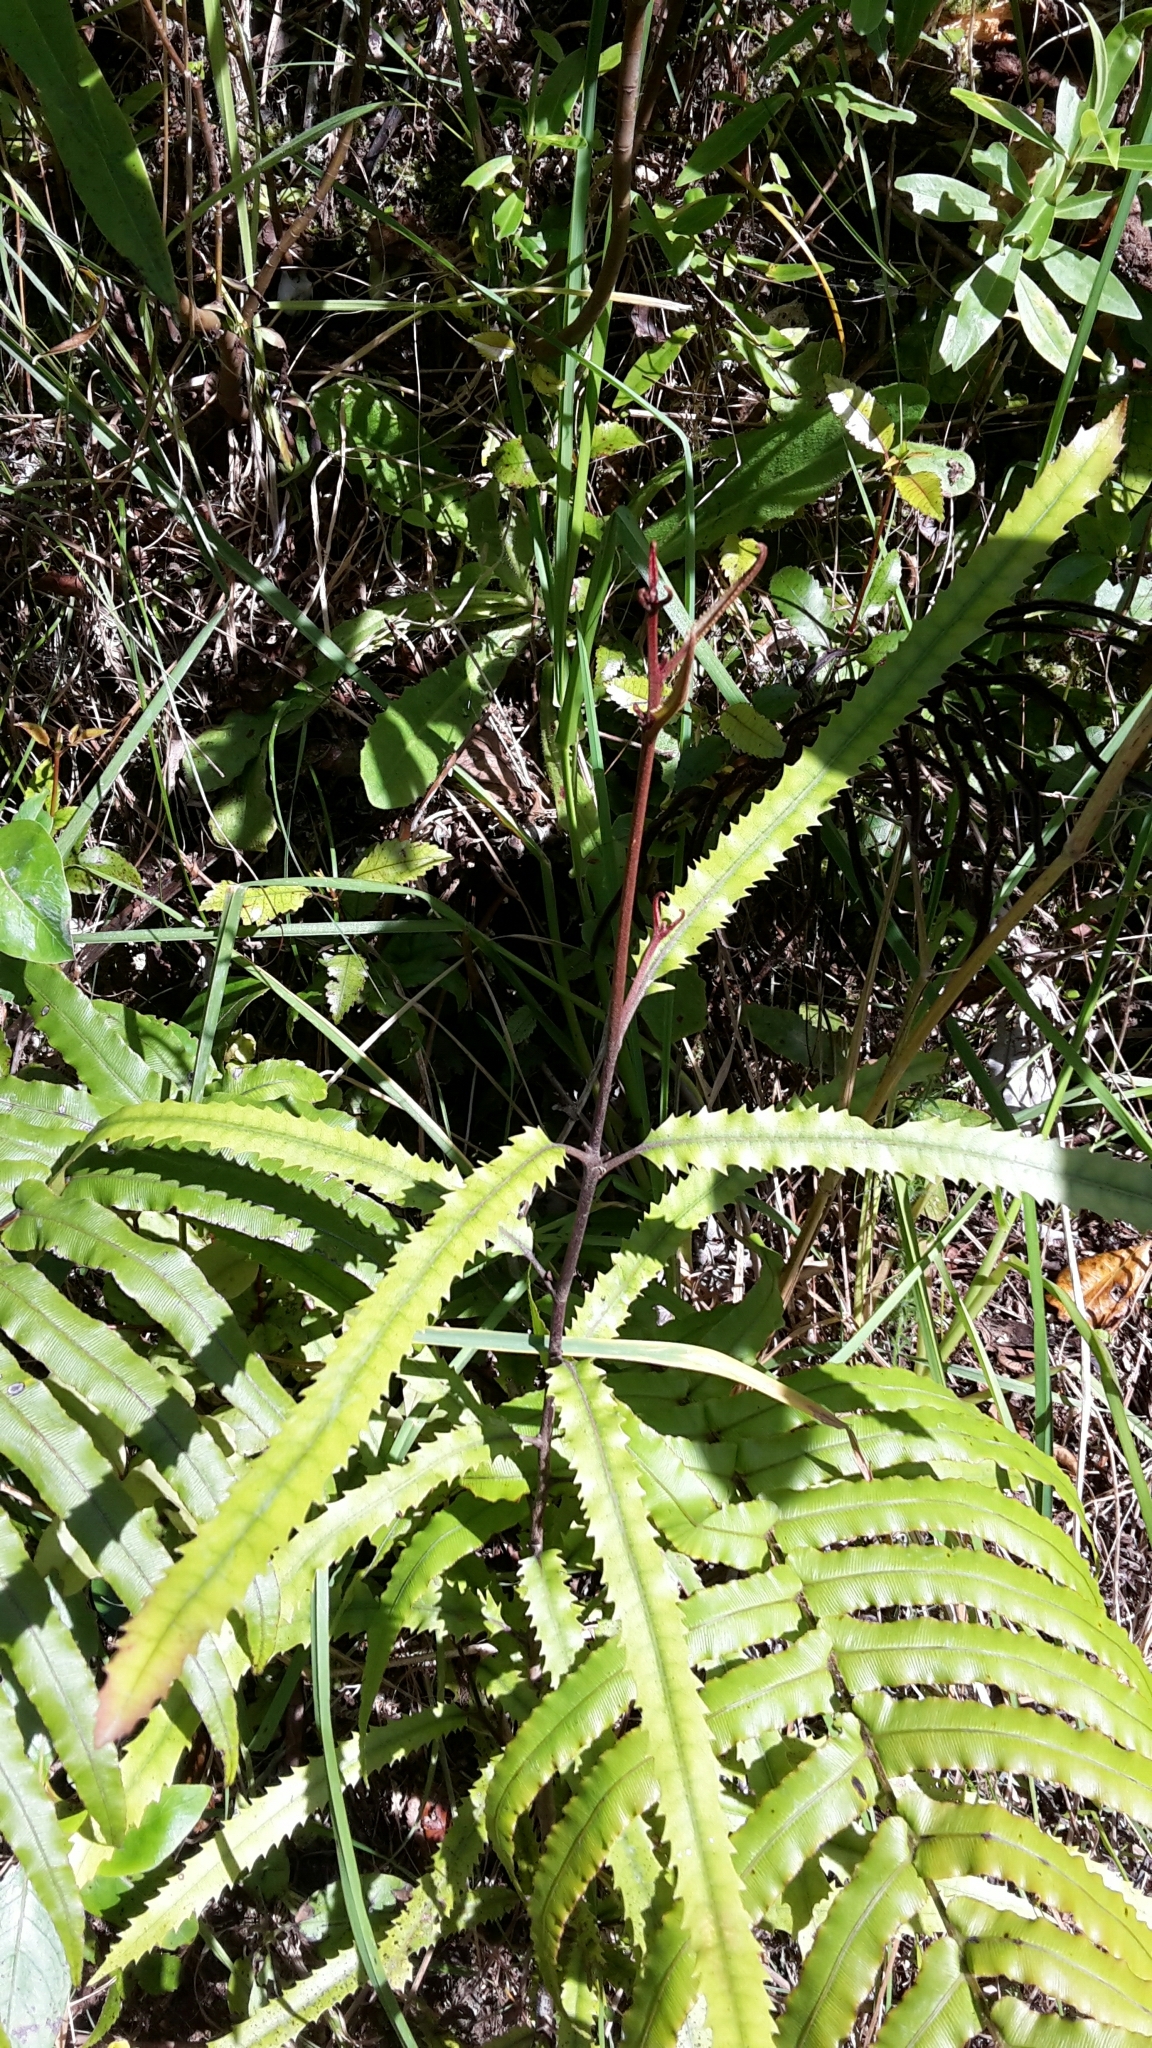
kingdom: Plantae
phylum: Tracheophyta
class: Magnoliopsida
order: Proteales
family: Proteaceae
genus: Knightia
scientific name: Knightia excelsa
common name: New zealand-honeysuckle
